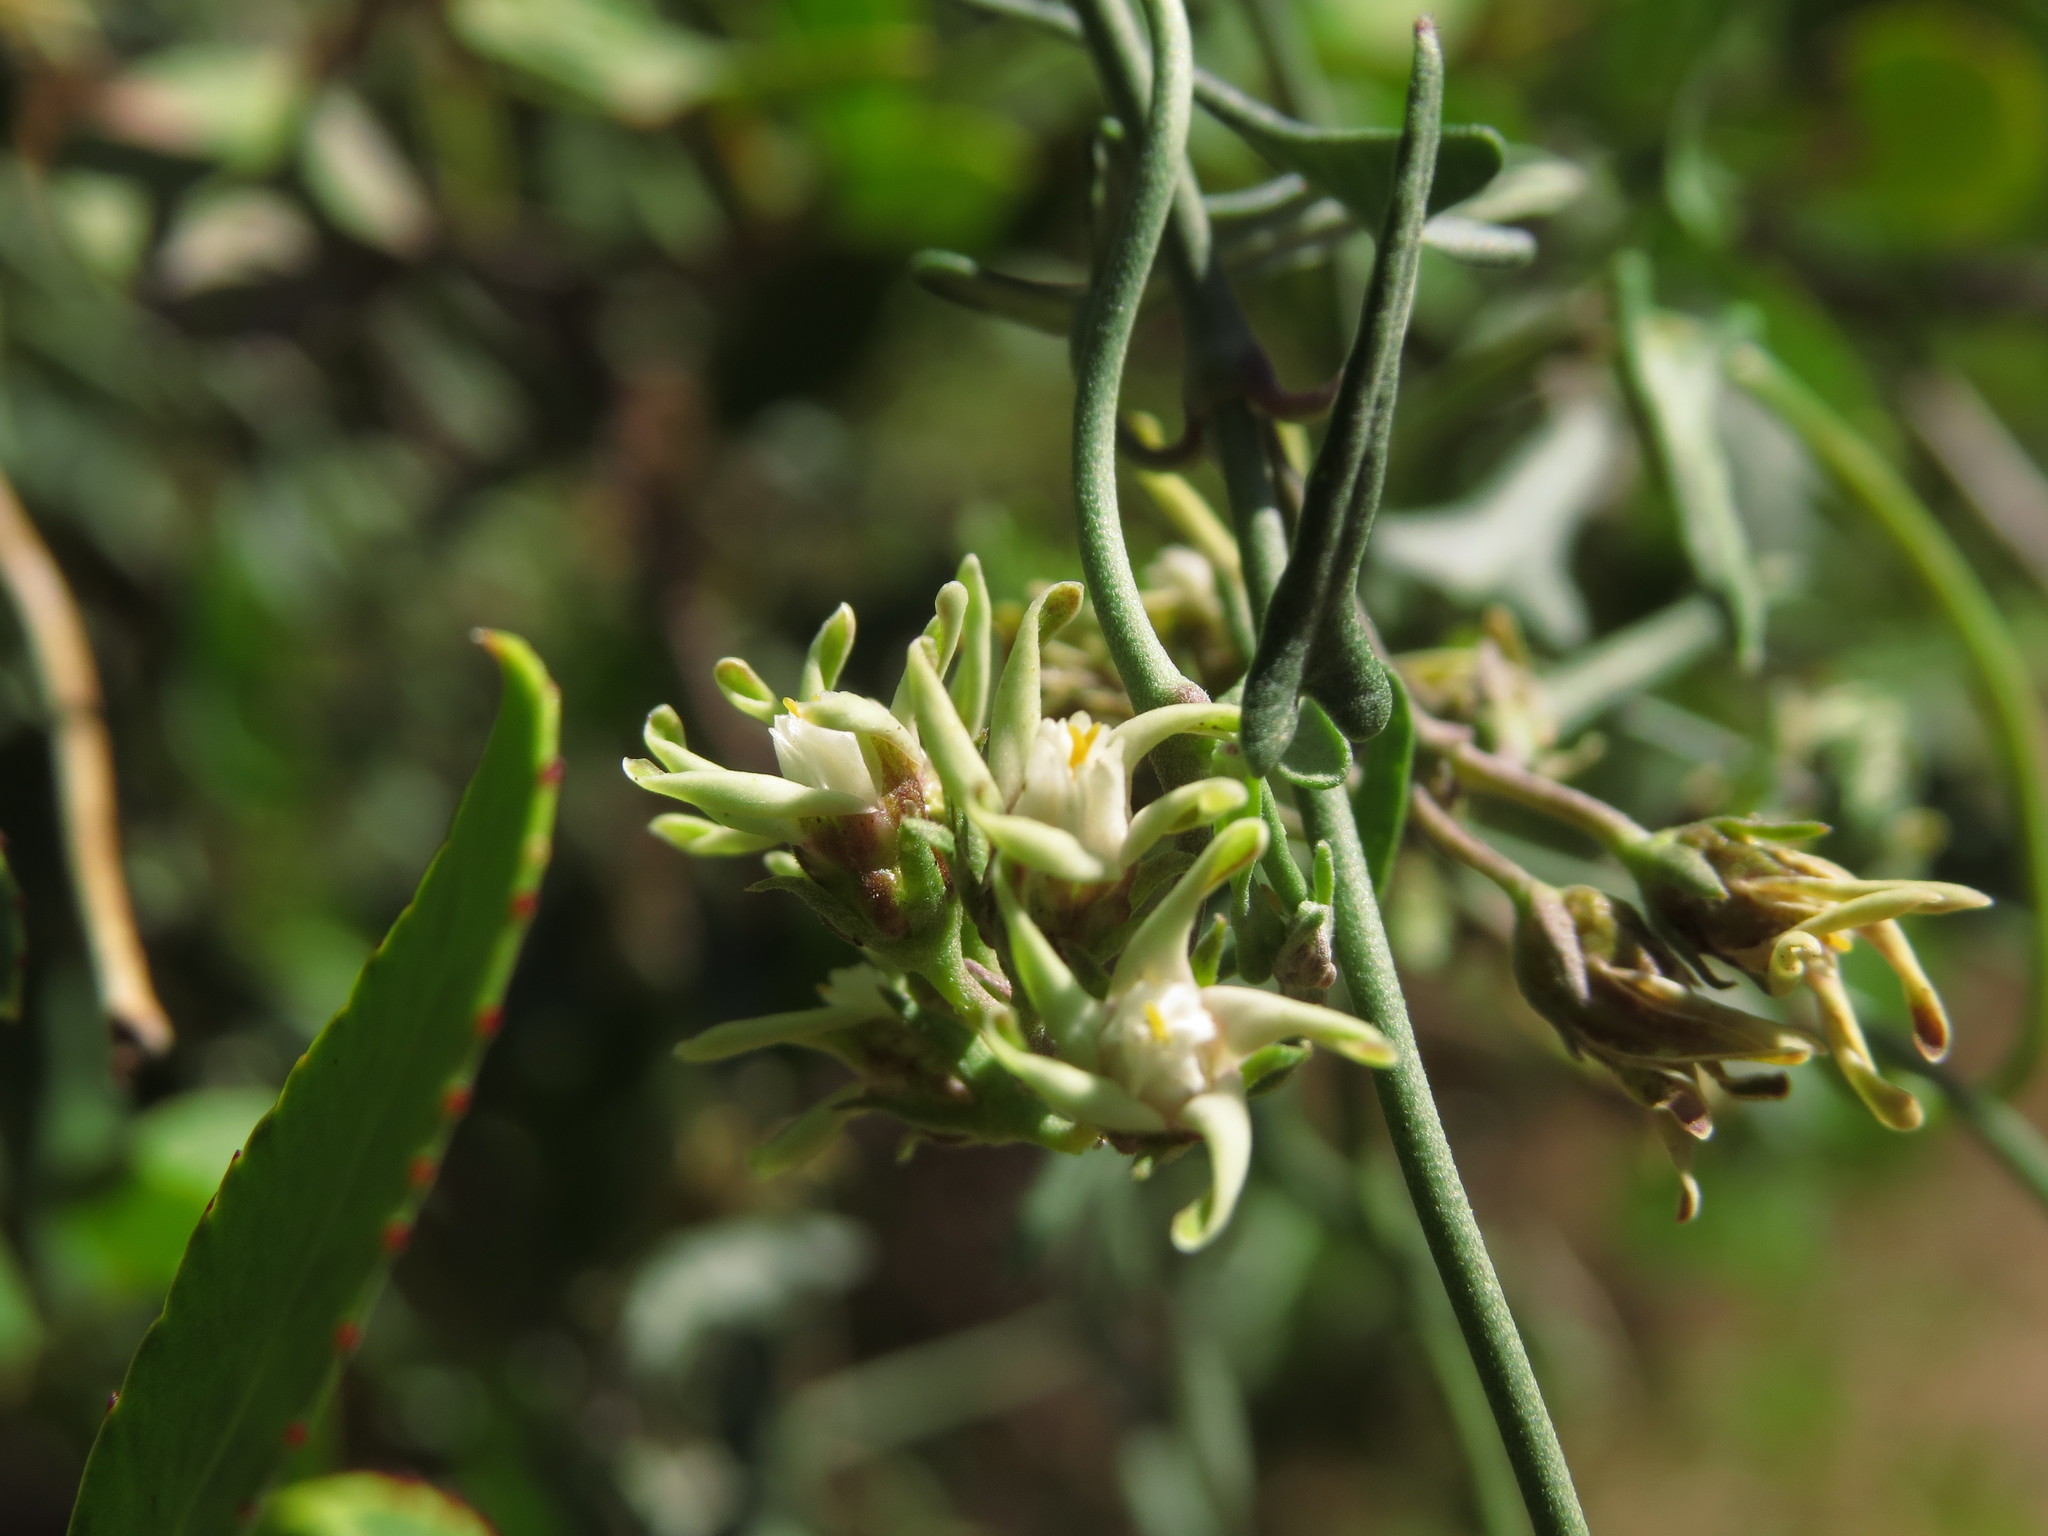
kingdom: Plantae
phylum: Tracheophyta
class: Magnoliopsida
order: Gentianales
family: Apocynaceae
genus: Tweedia
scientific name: Tweedia birostrata
